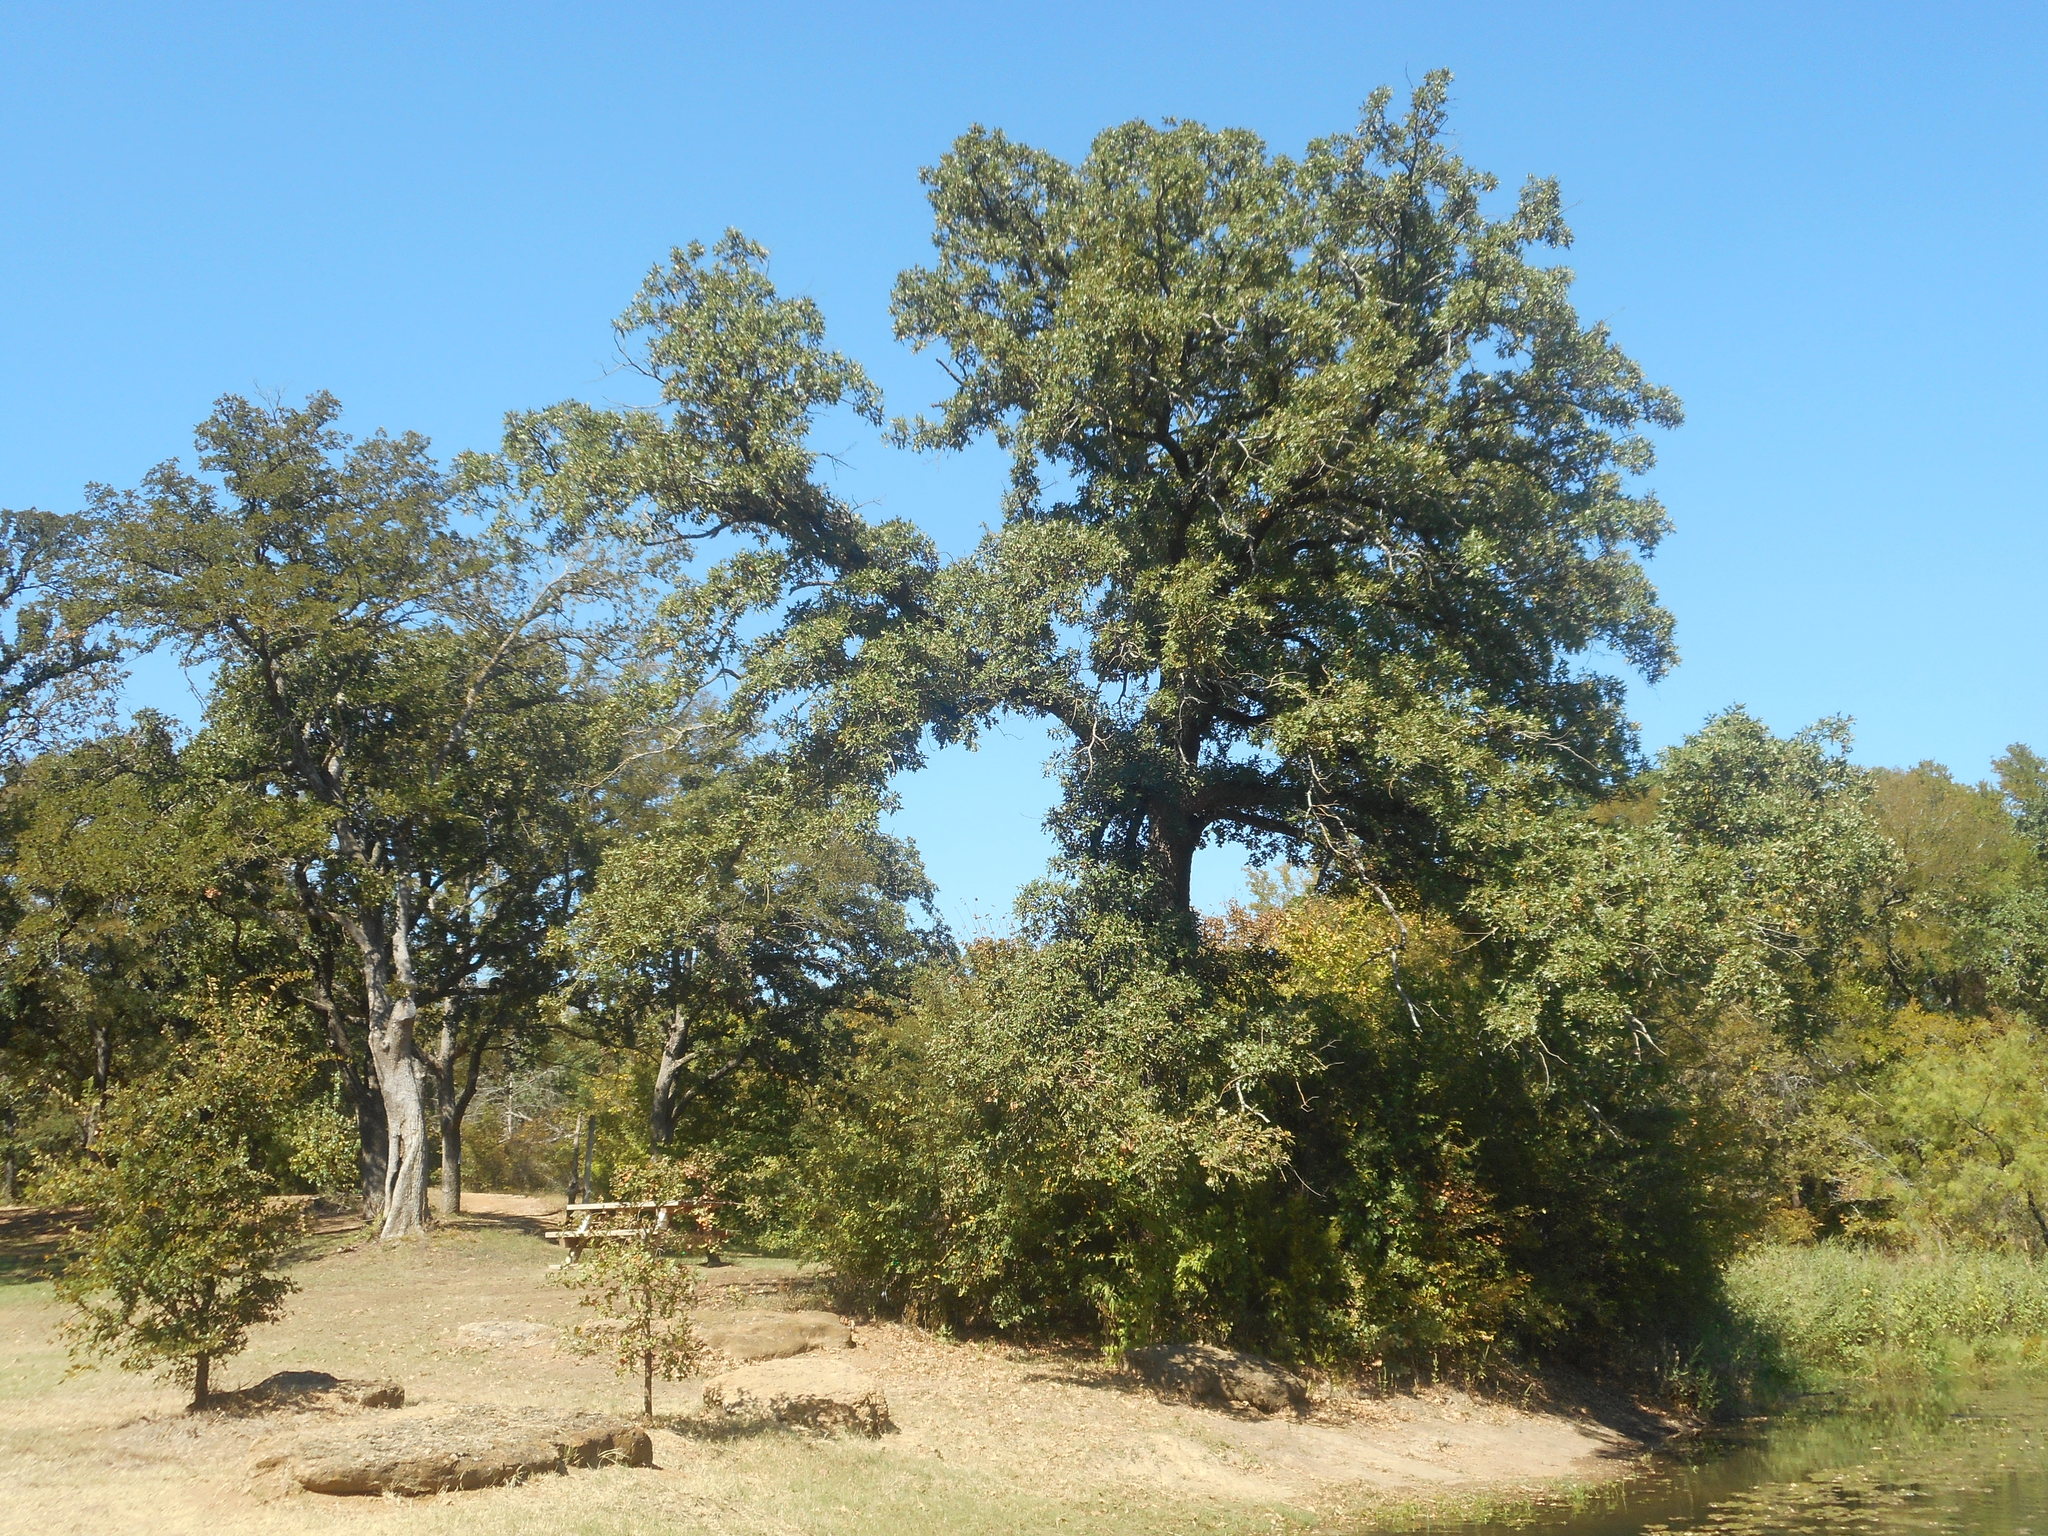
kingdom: Plantae
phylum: Tracheophyta
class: Magnoliopsida
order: Fagales
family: Fagaceae
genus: Quercus
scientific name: Quercus stellata
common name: Post oak
